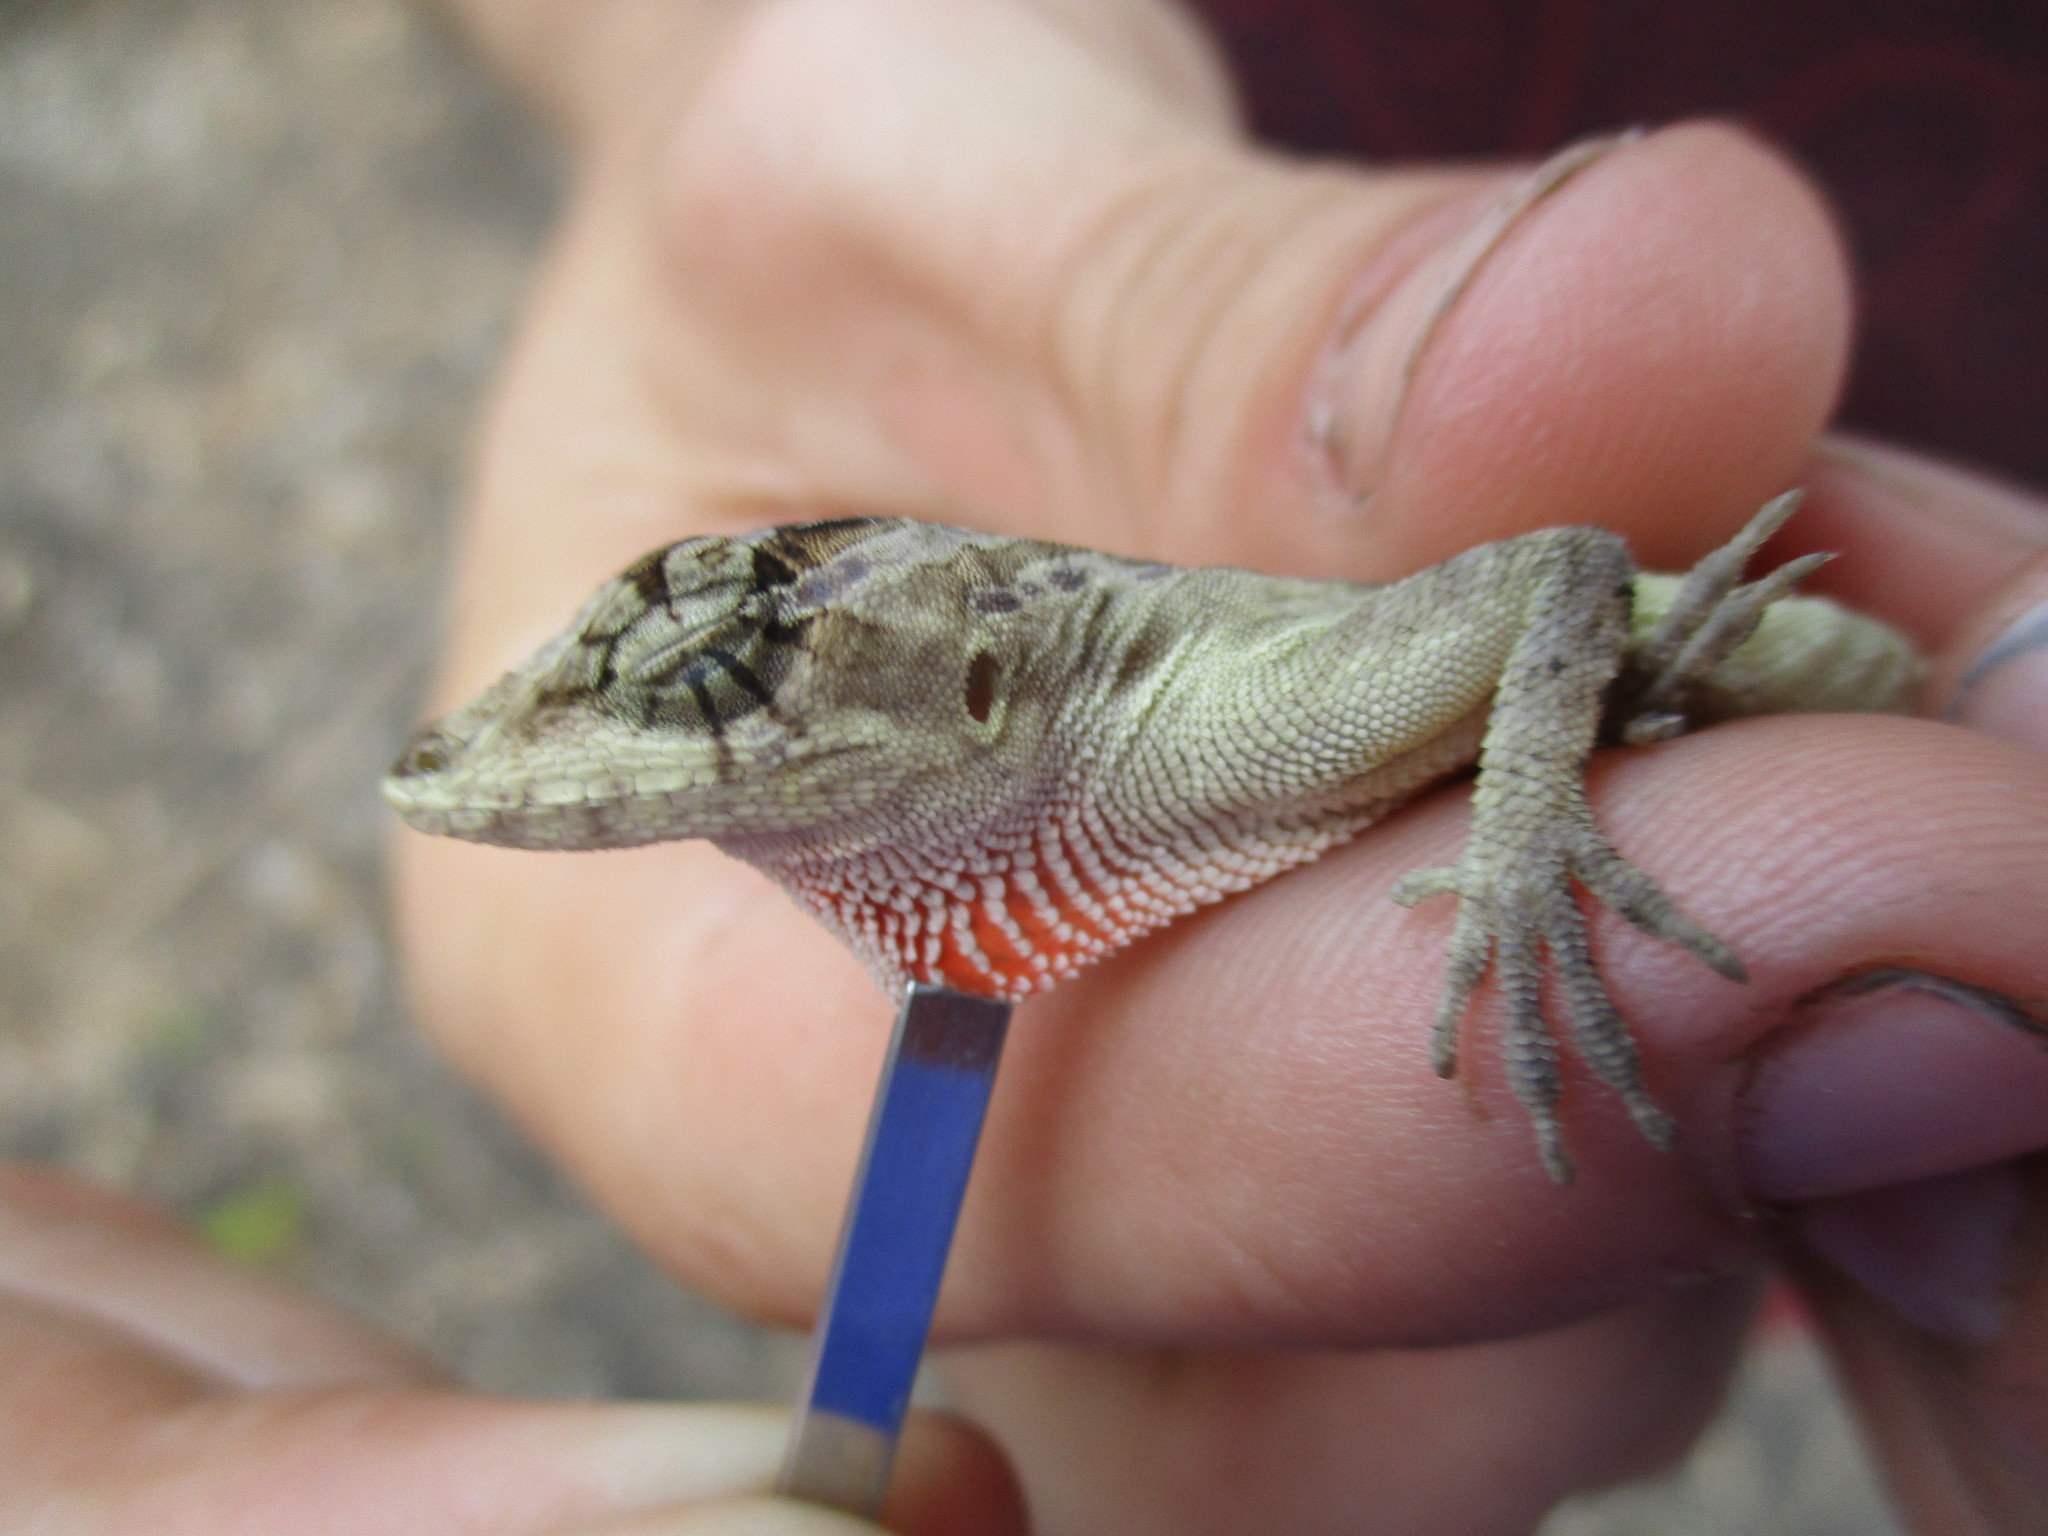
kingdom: Animalia
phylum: Chordata
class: Squamata
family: Dactyloidae
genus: Anolis
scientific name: Anolis lemurinus
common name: Ghost anole
